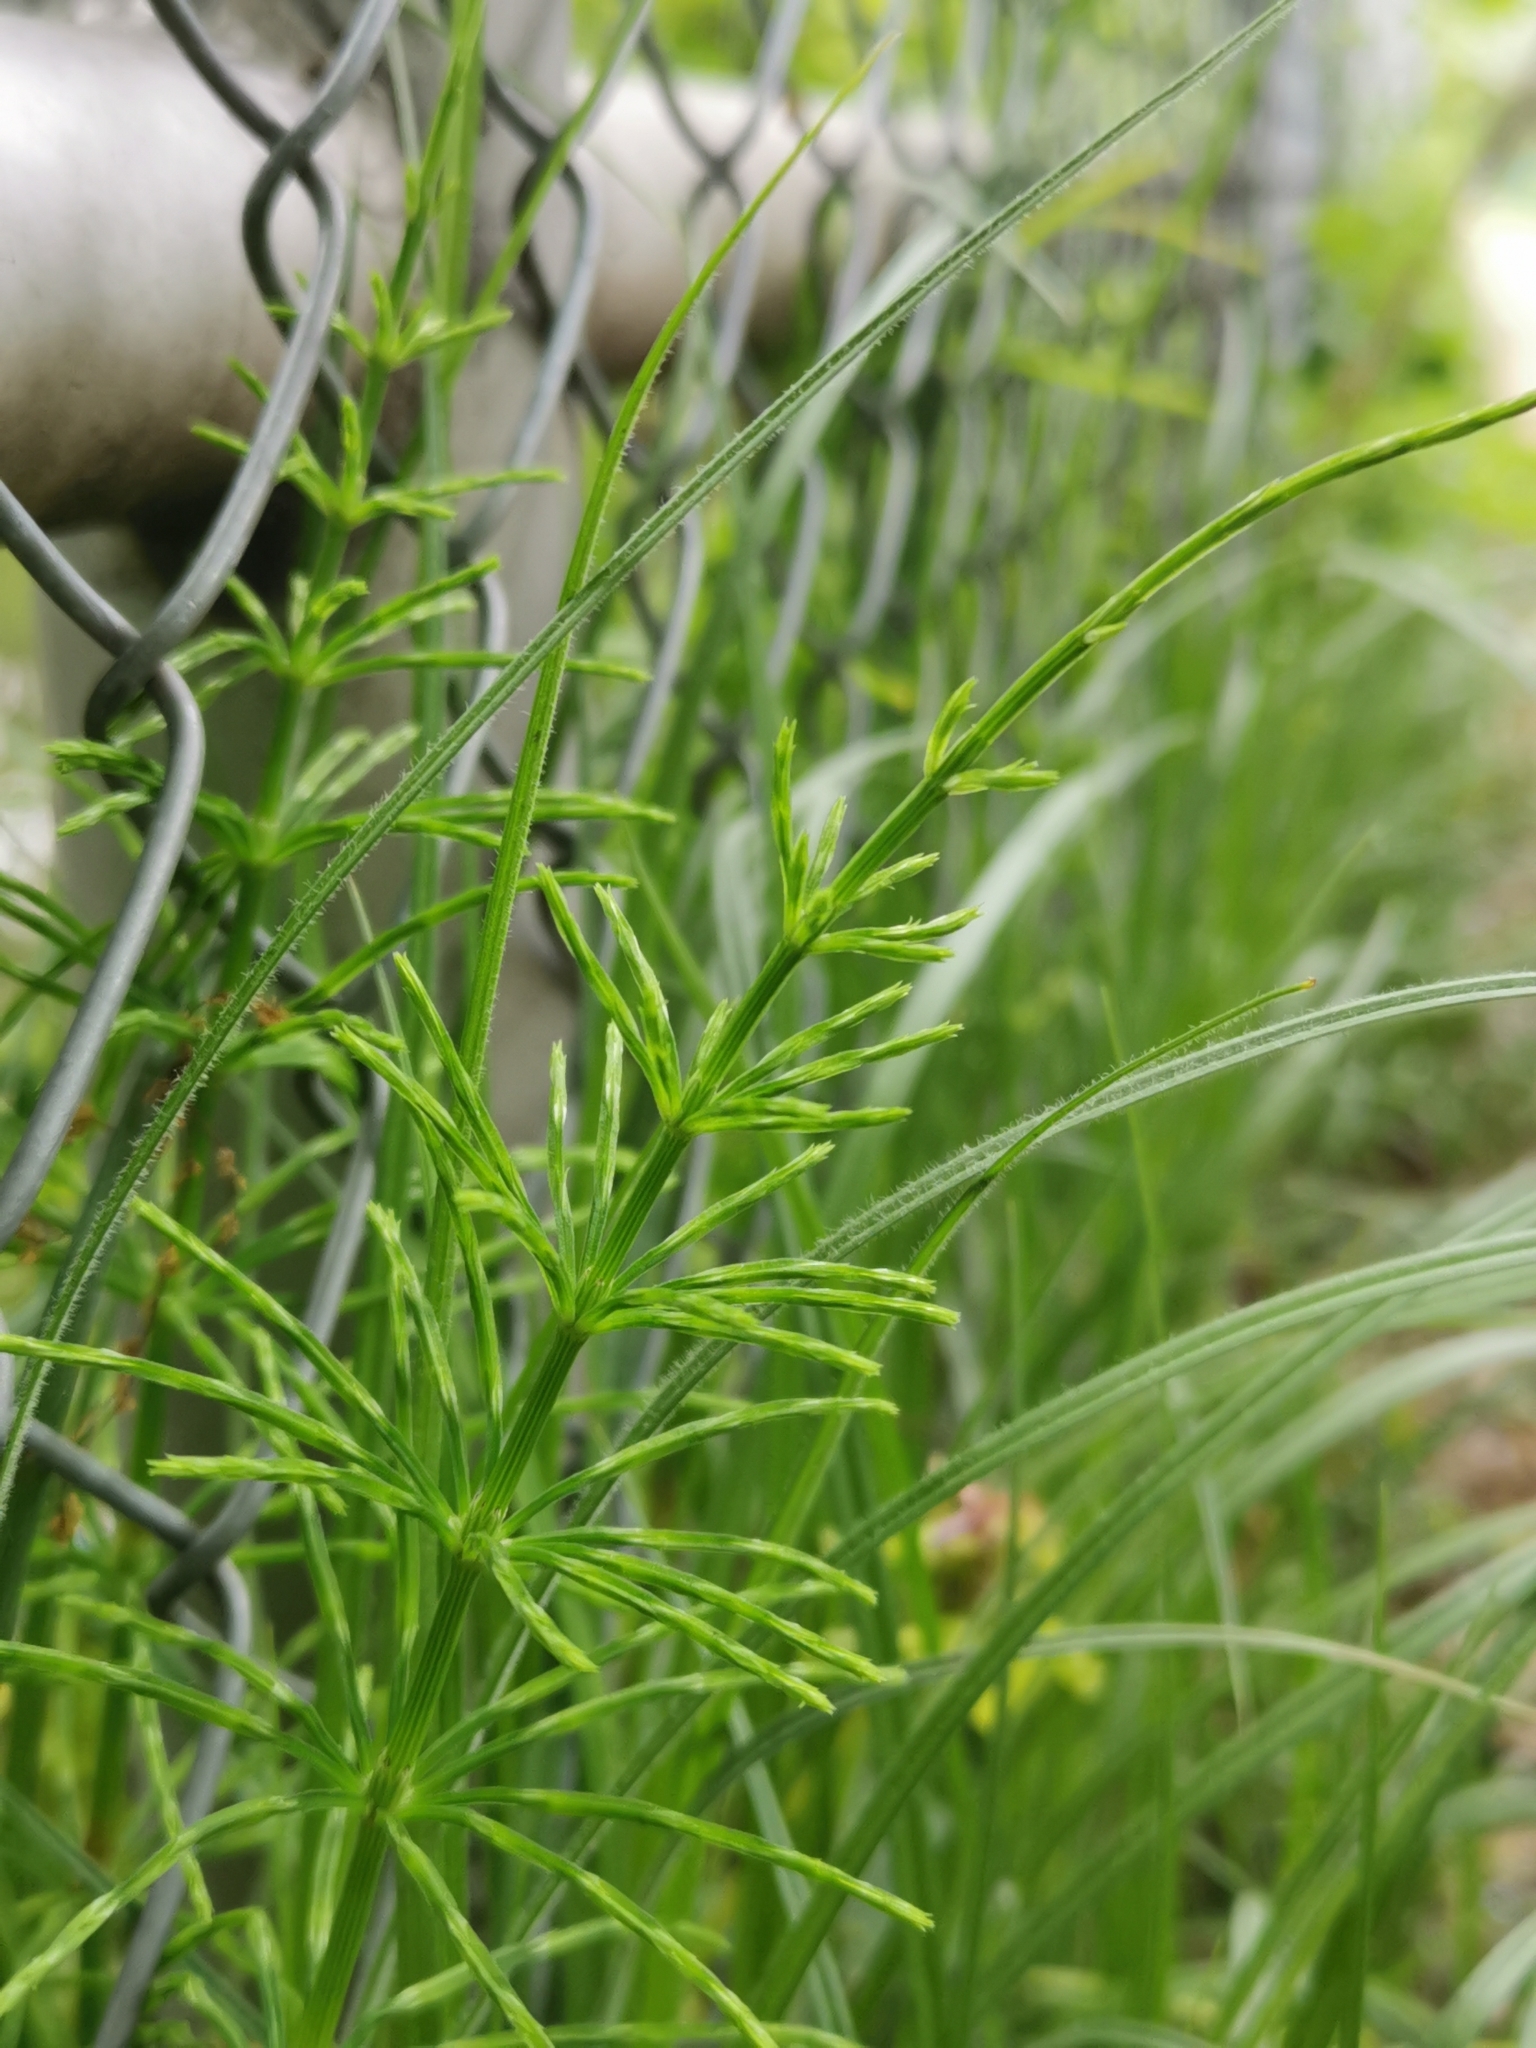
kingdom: Plantae
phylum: Tracheophyta
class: Polypodiopsida
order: Equisetales
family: Equisetaceae
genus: Equisetum
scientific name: Equisetum arvense
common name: Field horsetail
